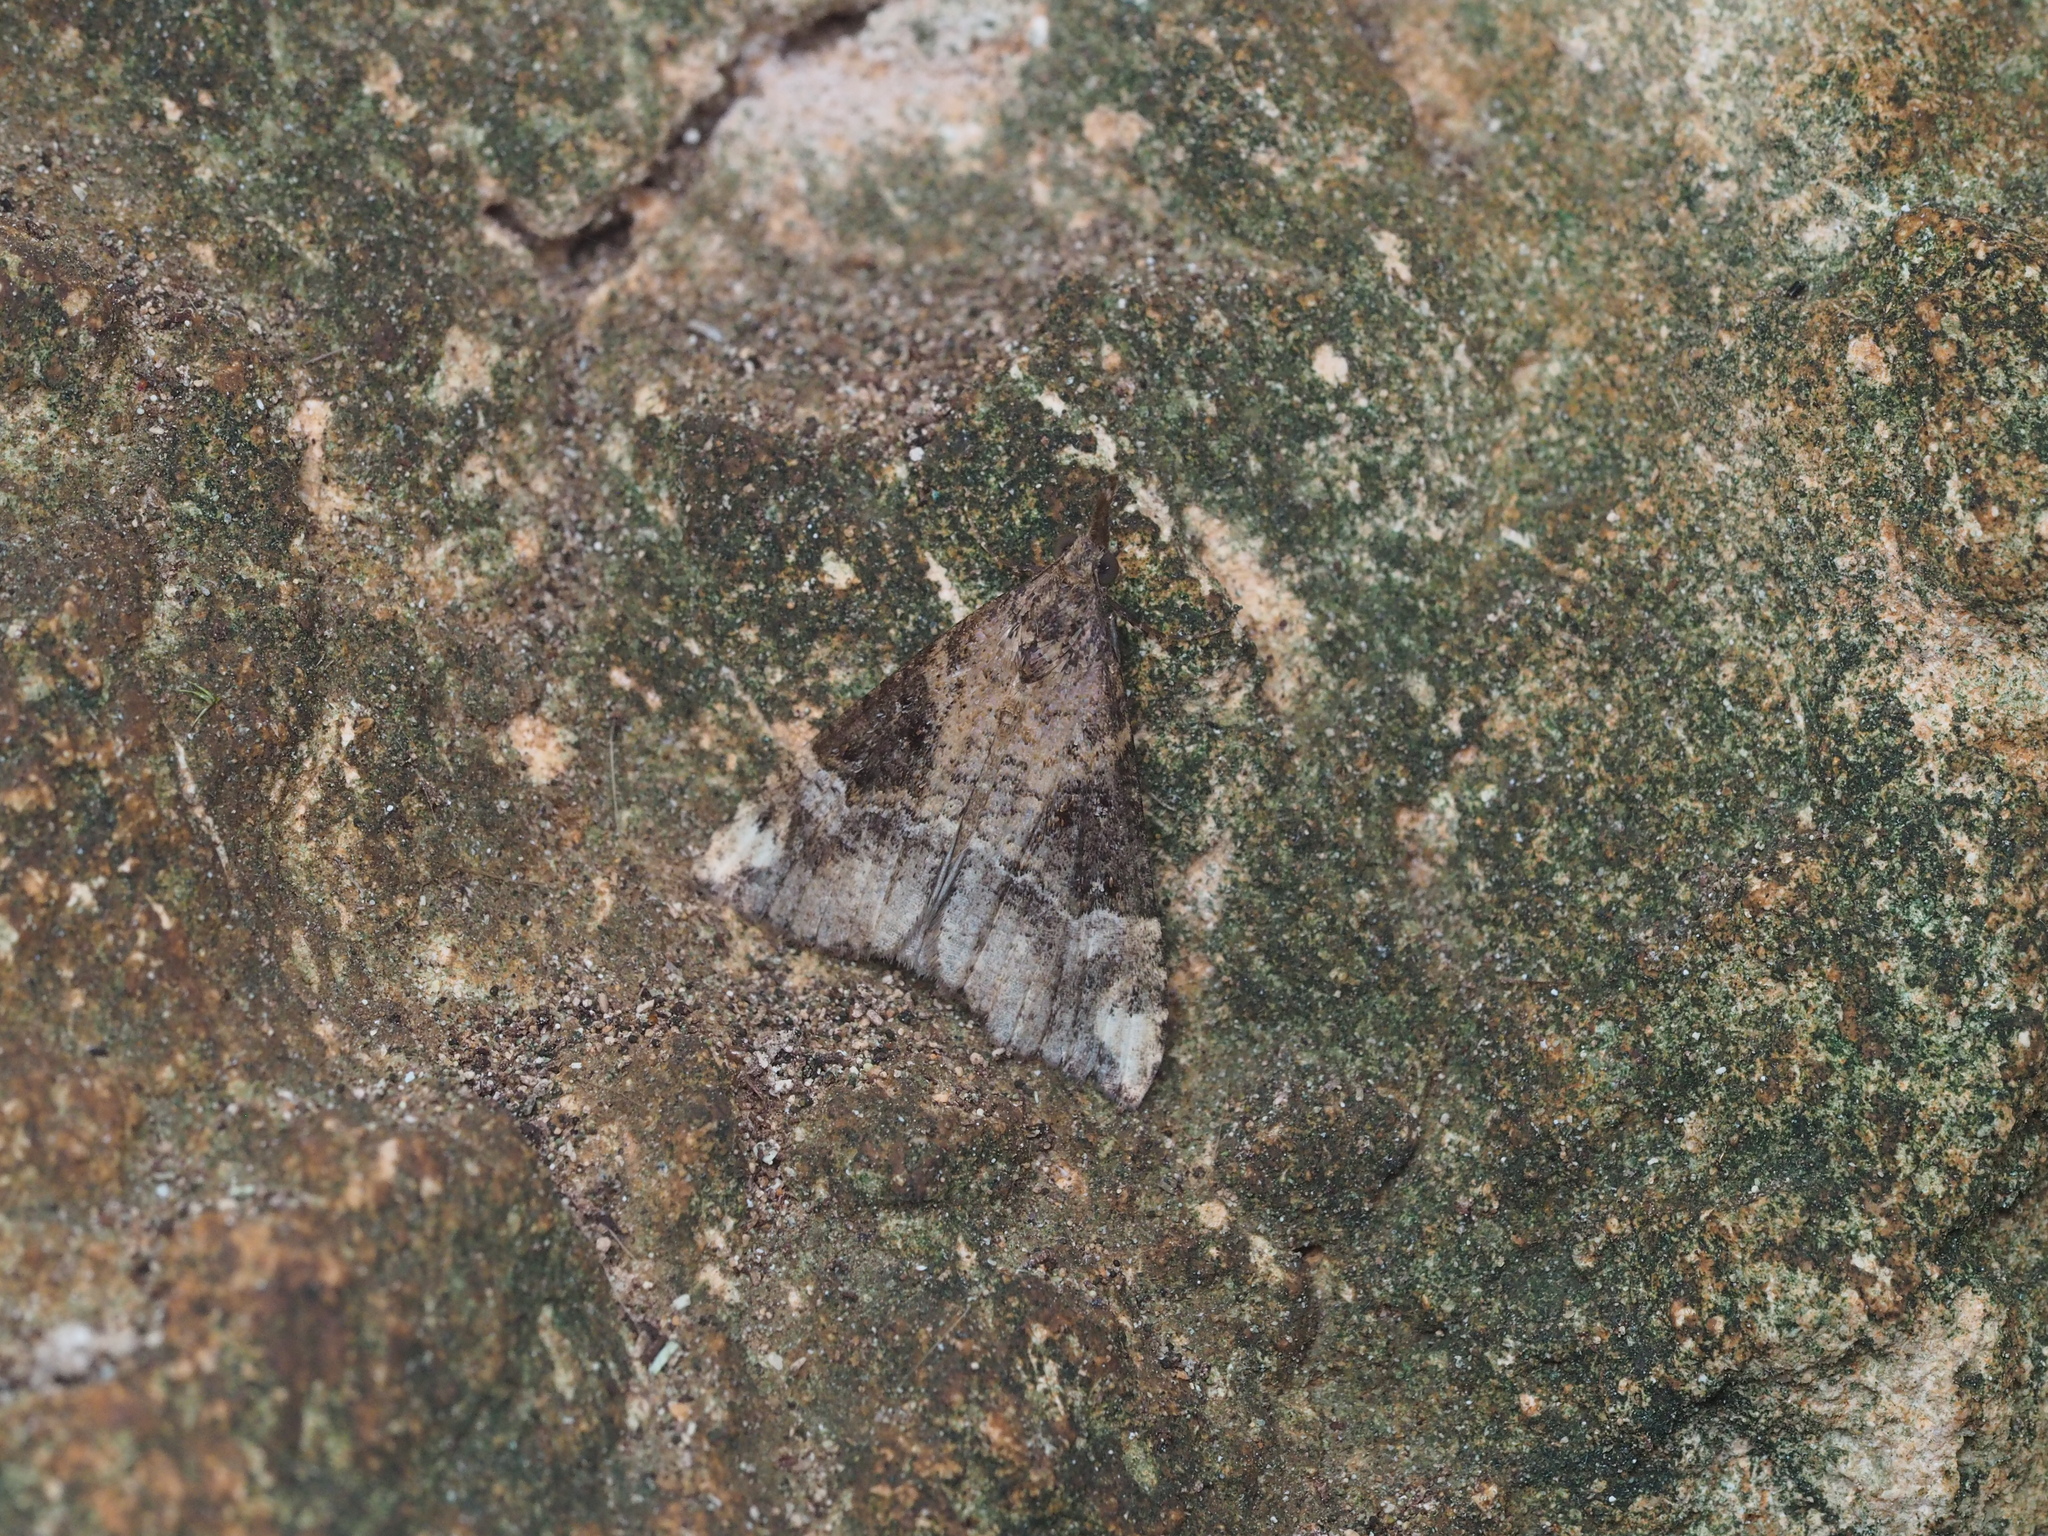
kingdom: Animalia
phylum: Arthropoda
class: Insecta
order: Lepidoptera
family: Erebidae
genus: Hypena
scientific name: Hypena obsitalis
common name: Bloxworth snout
